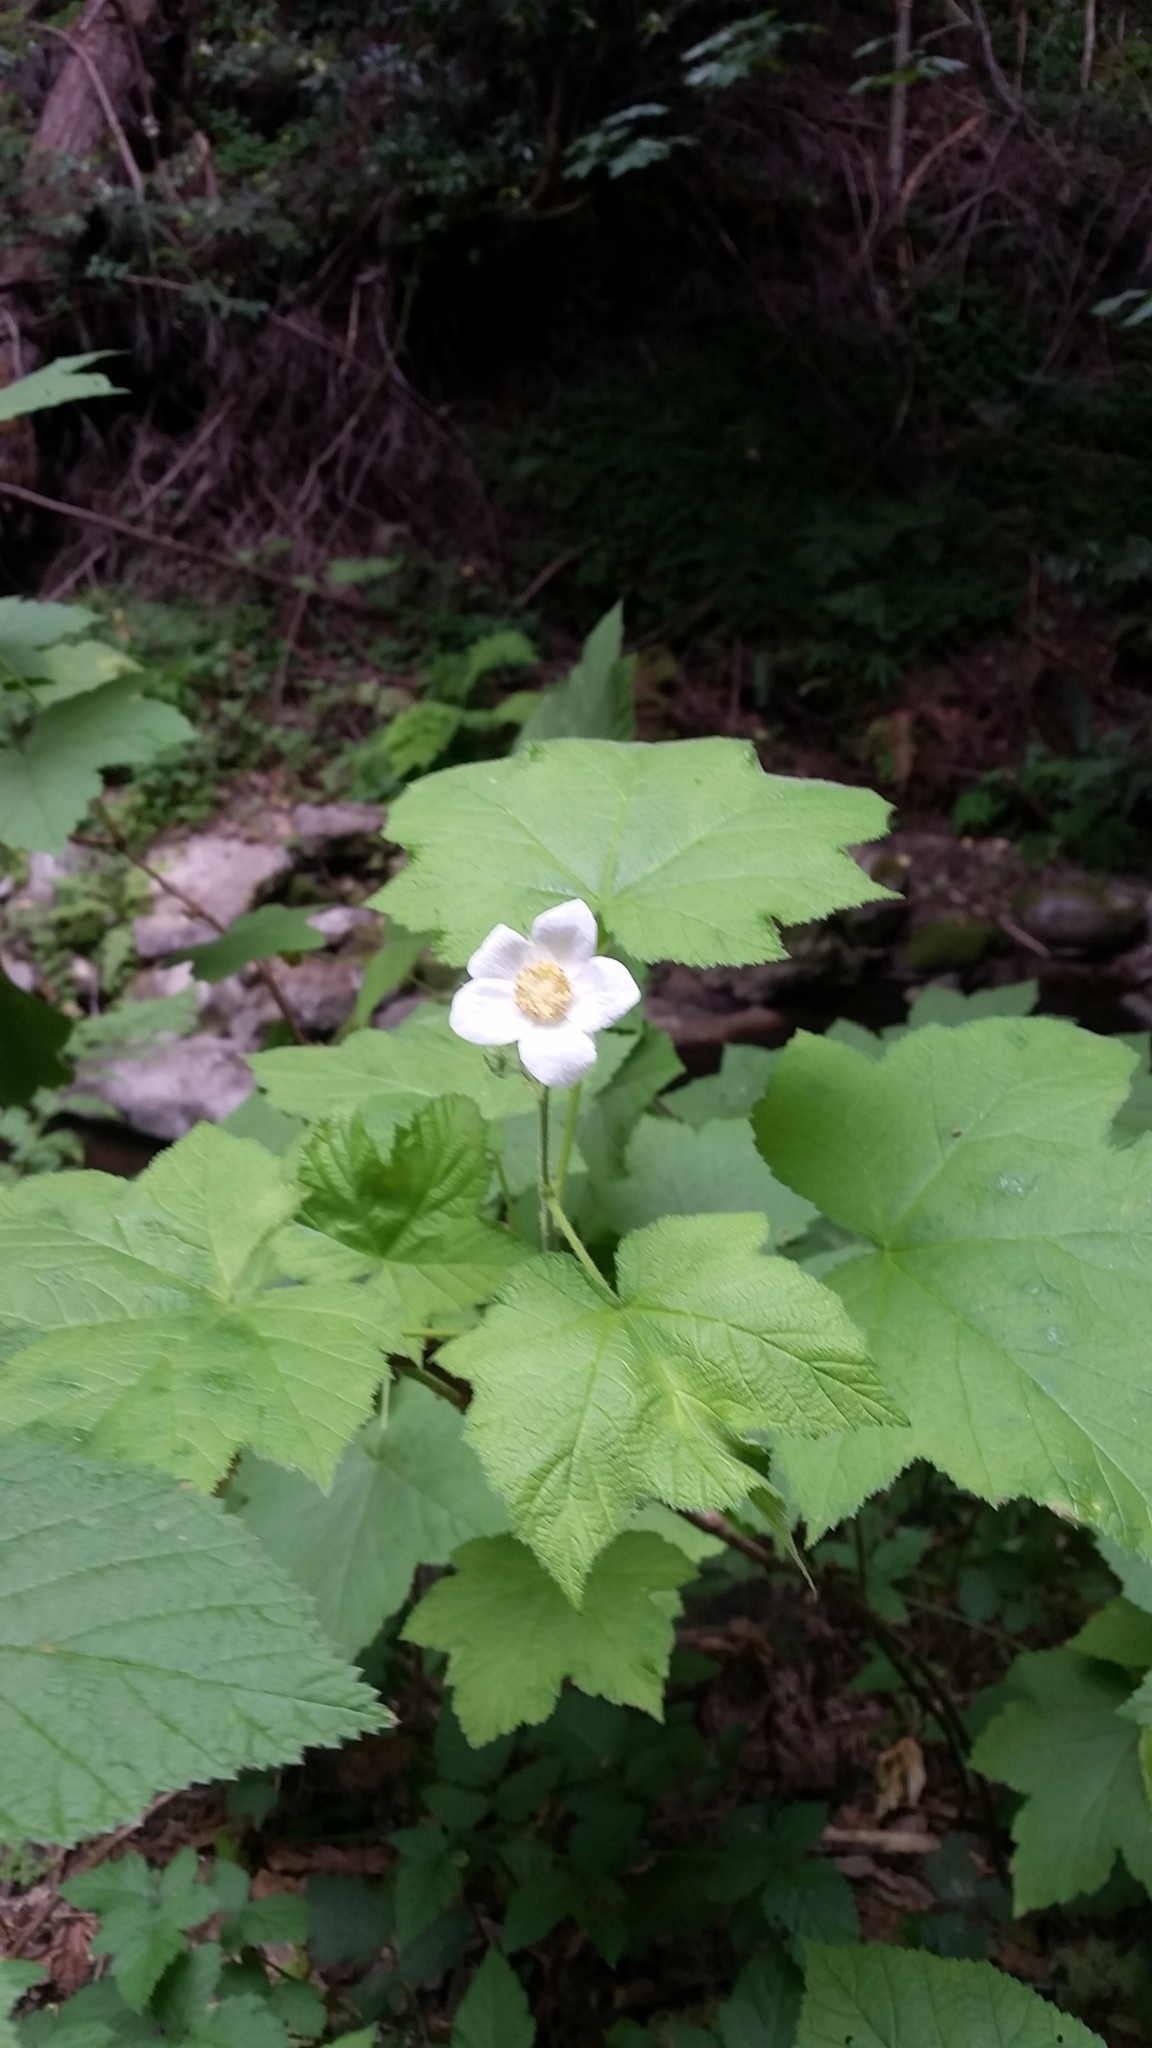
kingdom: Plantae
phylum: Tracheophyta
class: Magnoliopsida
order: Rosales
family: Rosaceae
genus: Rubus
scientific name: Rubus parviflorus
